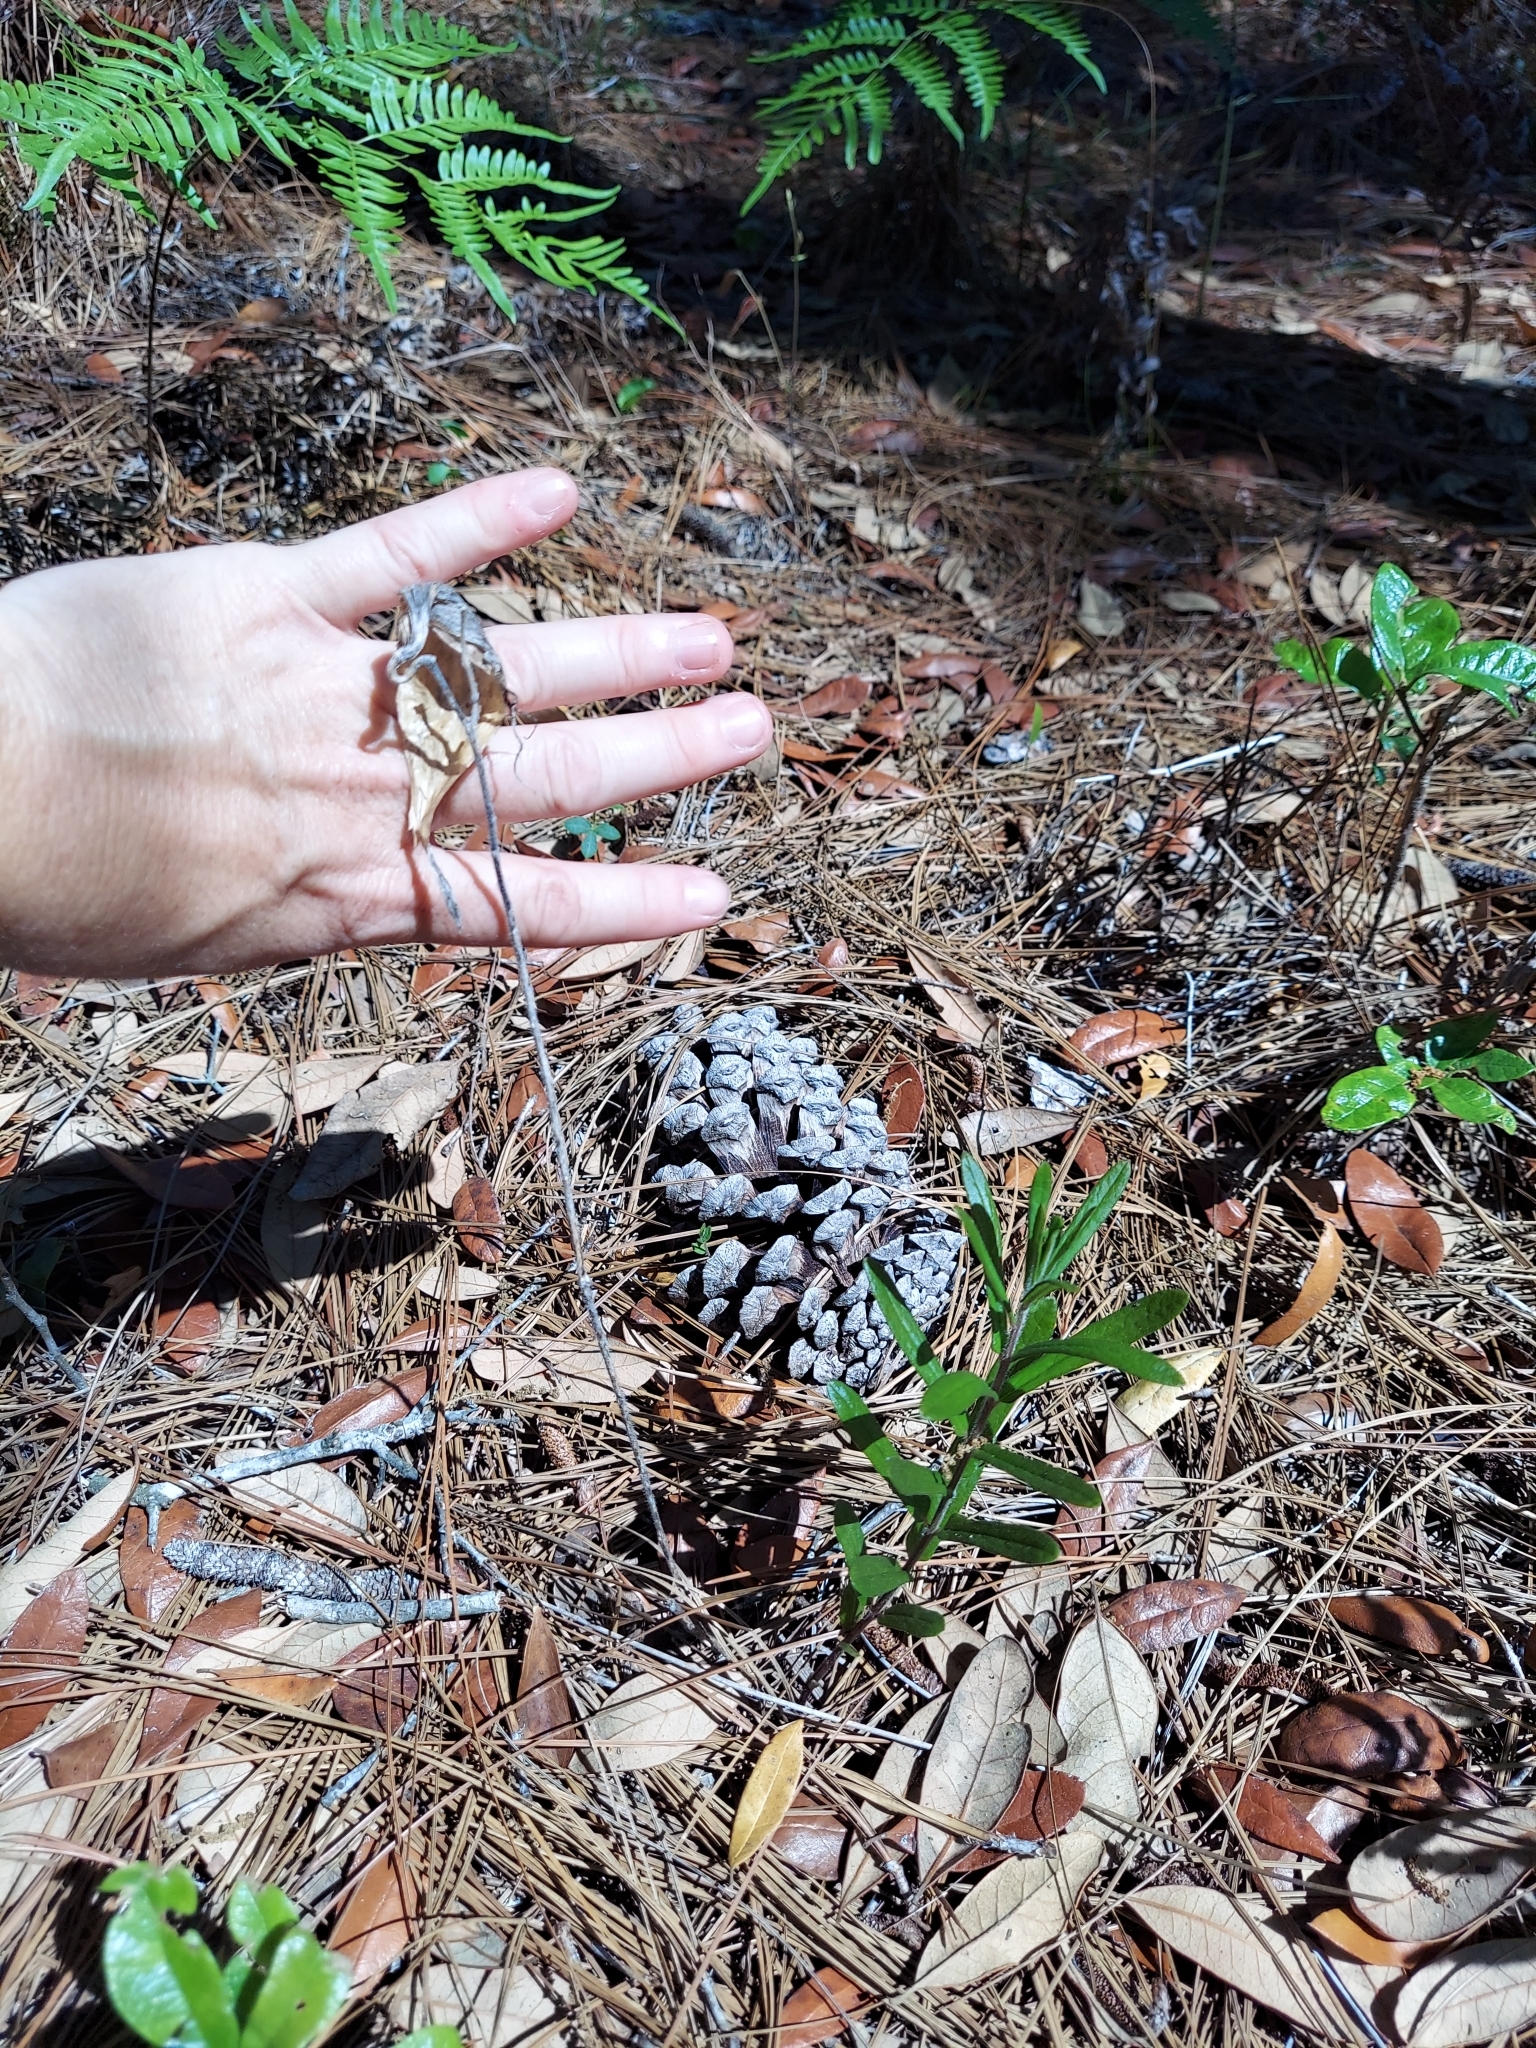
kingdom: Plantae
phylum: Tracheophyta
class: Magnoliopsida
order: Gentianales
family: Apocynaceae
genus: Asclepias
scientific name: Asclepias tuberosa
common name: Butterfly milkweed
